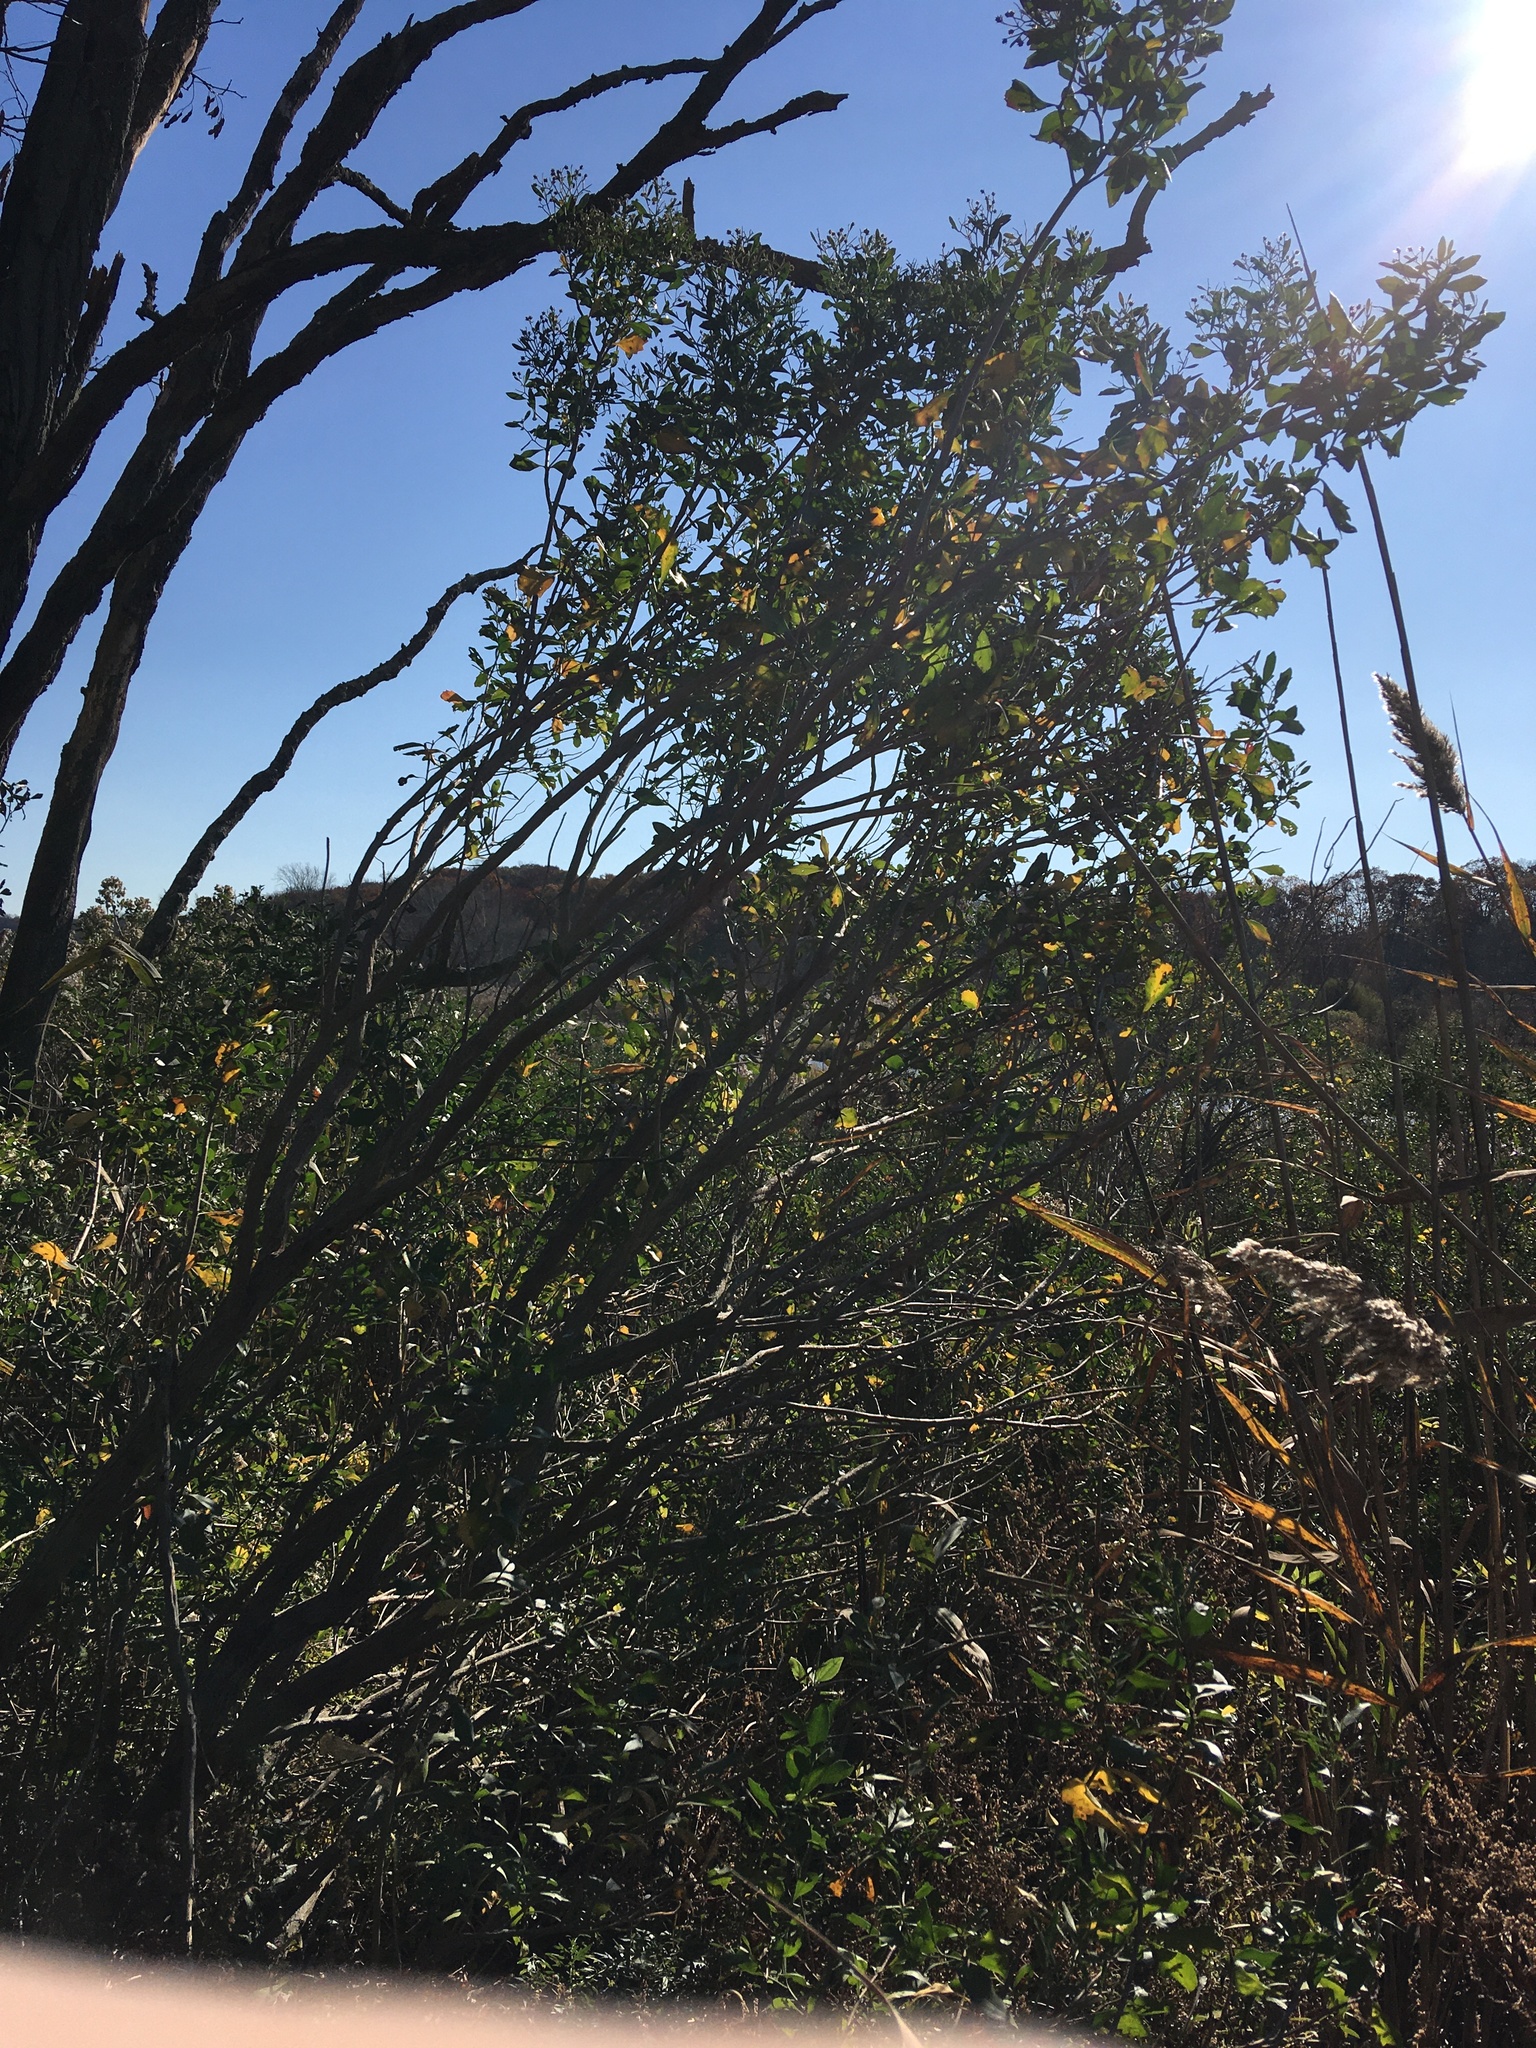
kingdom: Plantae
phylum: Tracheophyta
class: Magnoliopsida
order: Asterales
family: Asteraceae
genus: Baccharis
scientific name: Baccharis halimifolia
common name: Eastern baccharis
